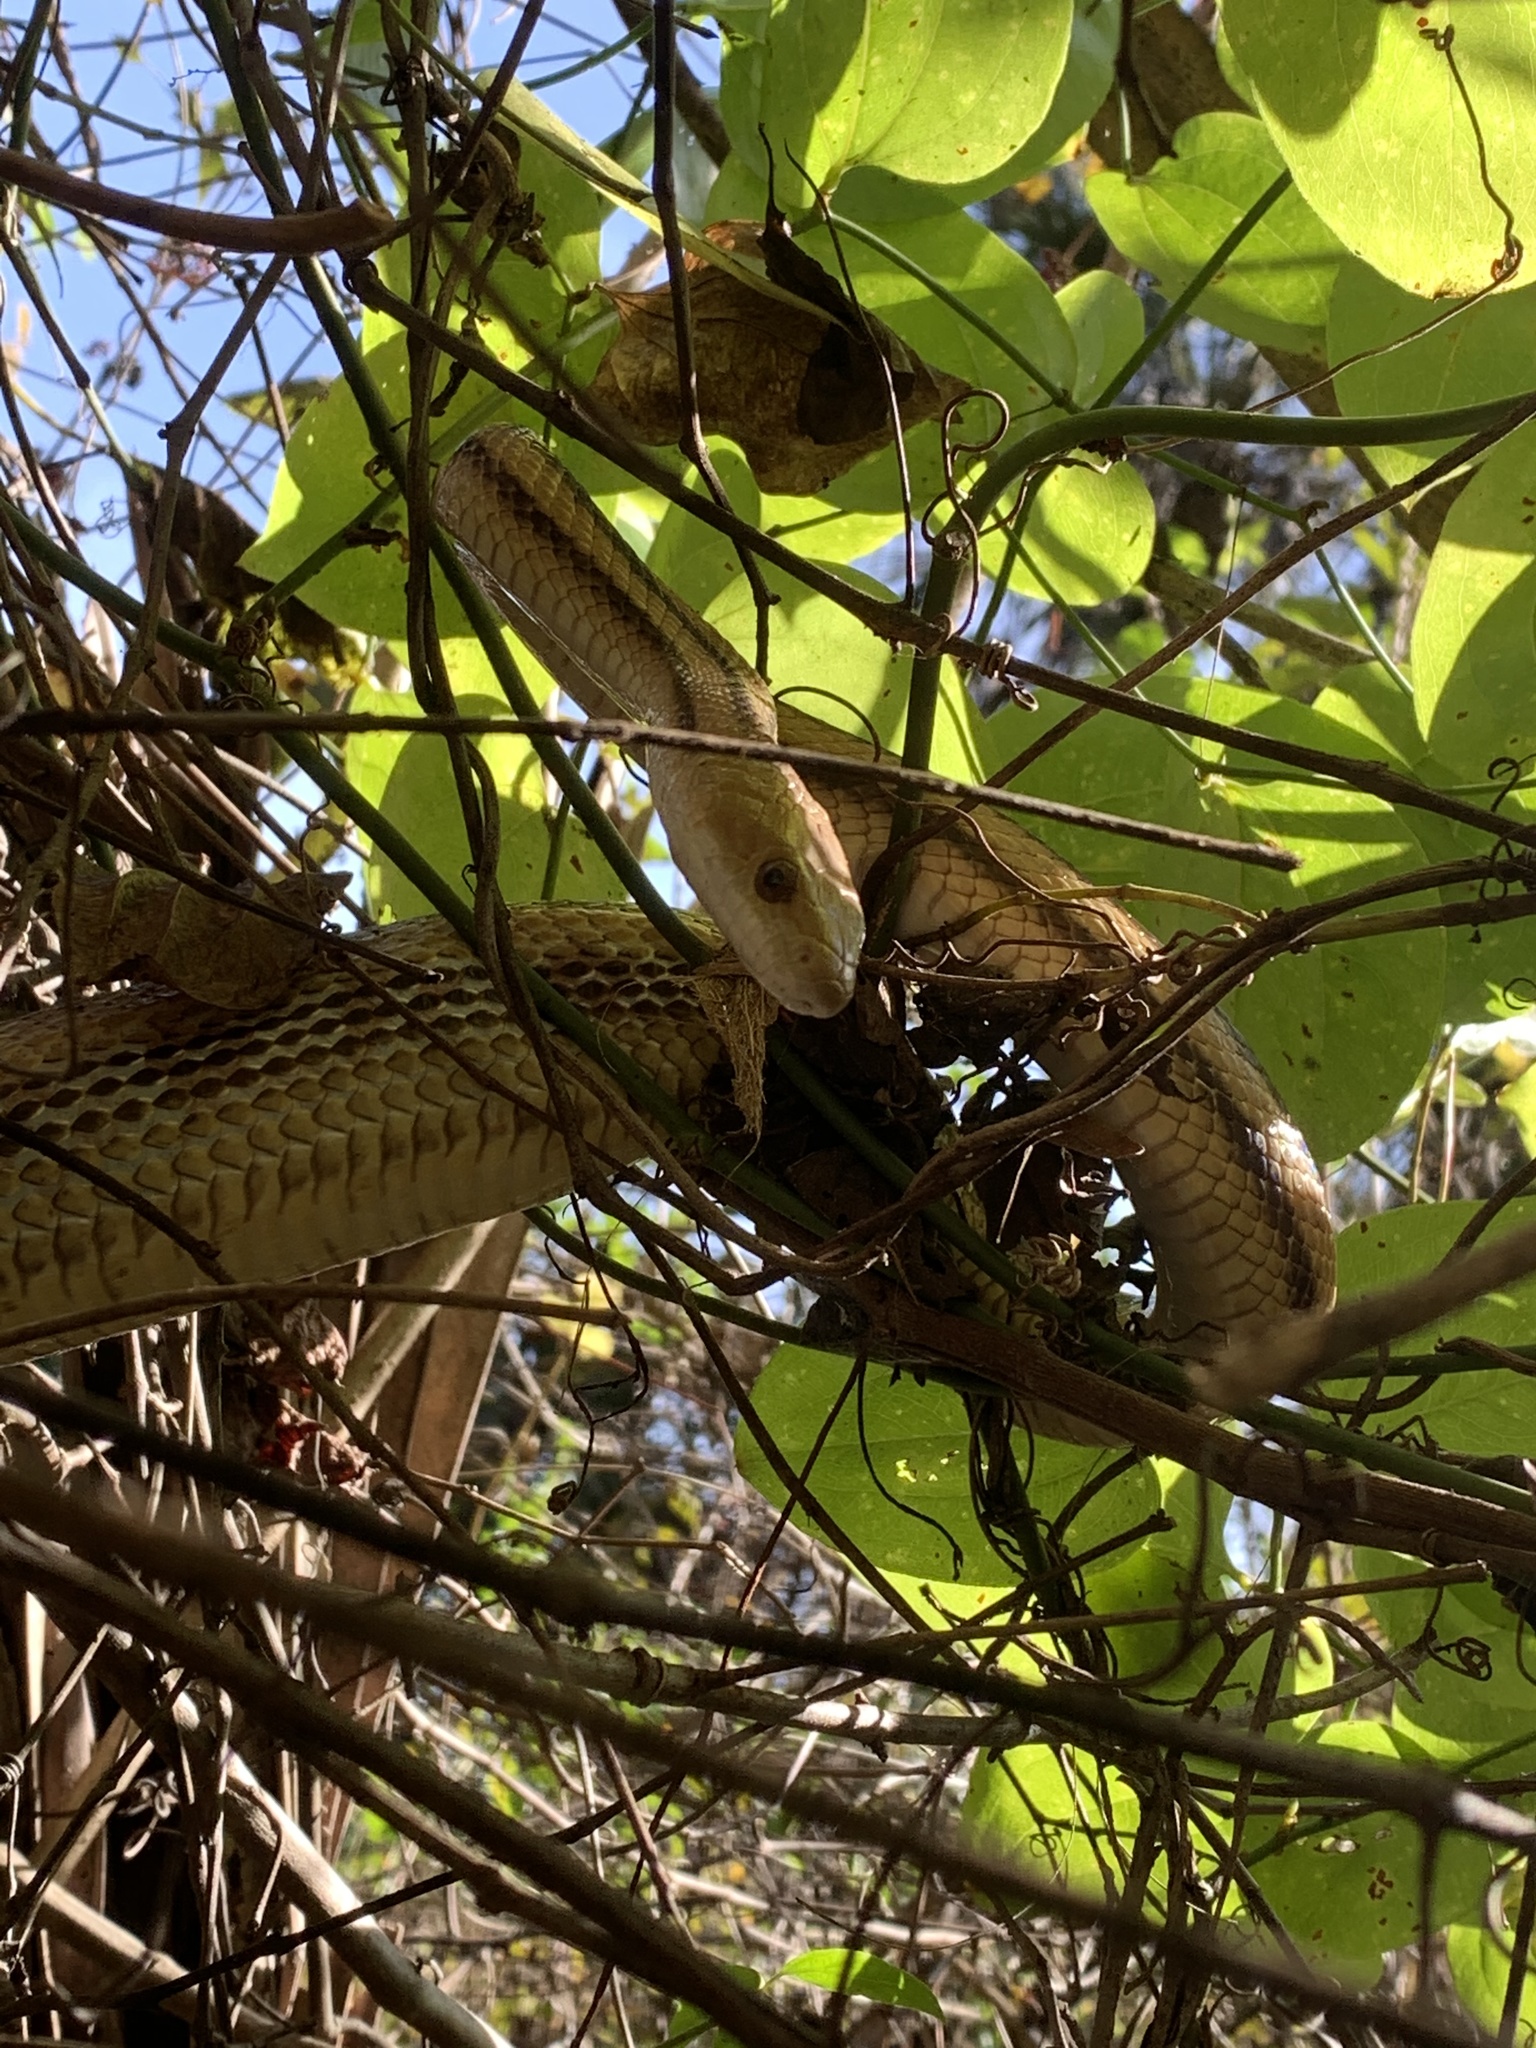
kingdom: Animalia
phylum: Chordata
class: Squamata
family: Colubridae
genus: Pantherophis
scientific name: Pantherophis alleghaniensis
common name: Eastern rat snake
